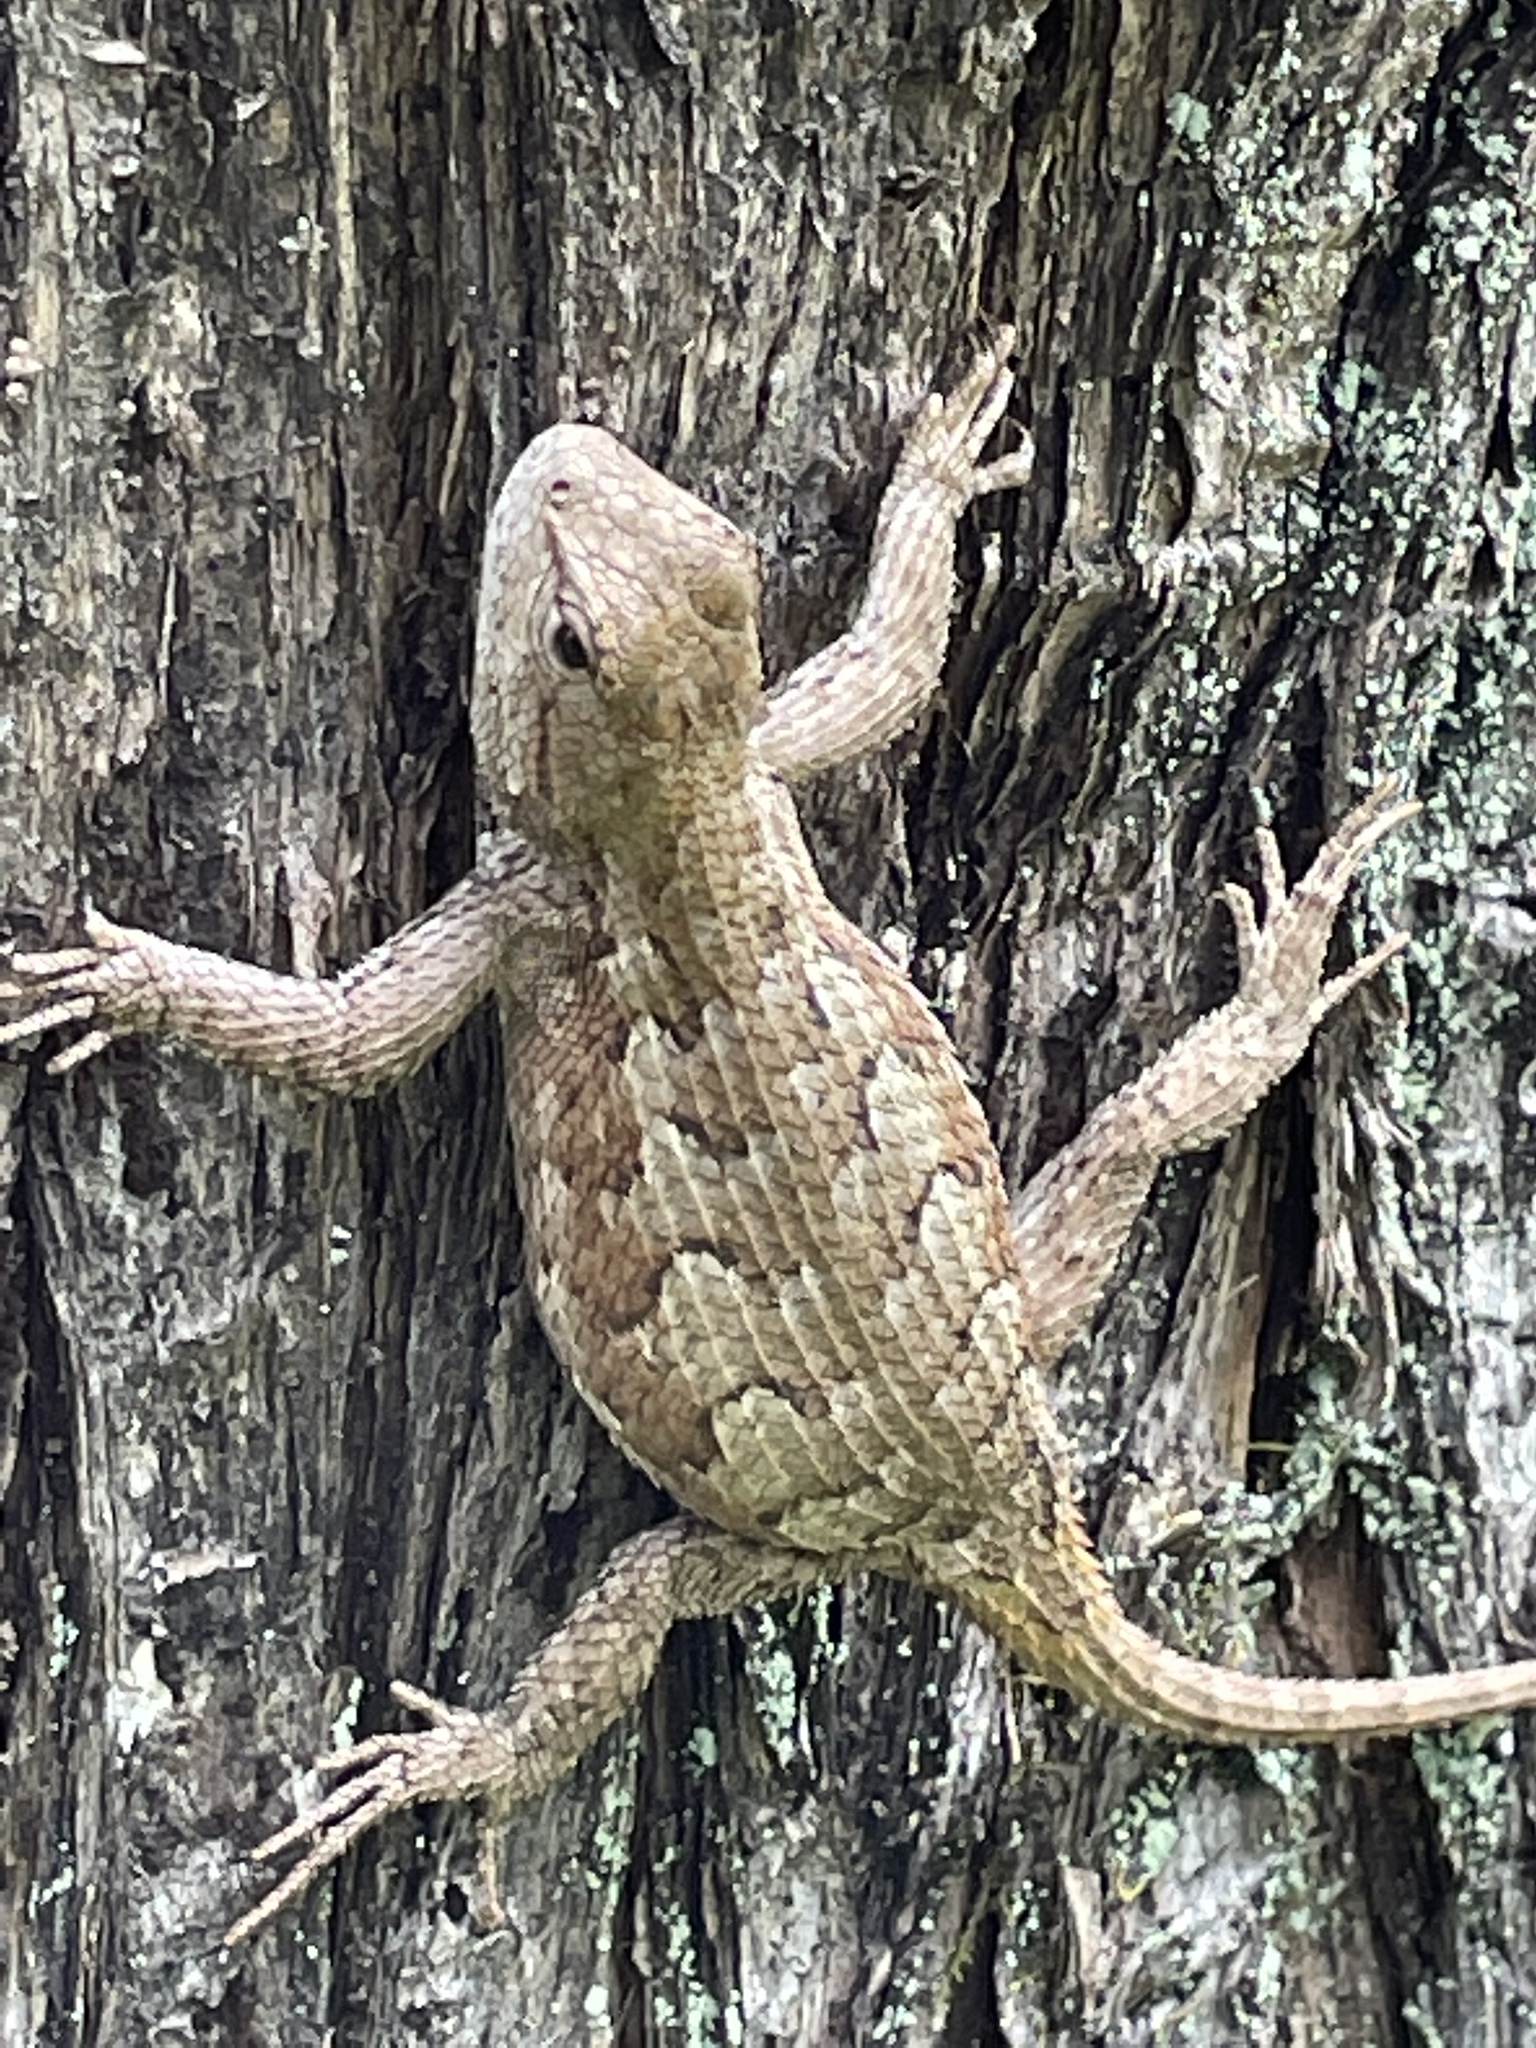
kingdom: Animalia
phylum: Chordata
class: Squamata
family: Phrynosomatidae
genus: Sceloporus
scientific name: Sceloporus consobrinus
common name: Southern prairie lizard
